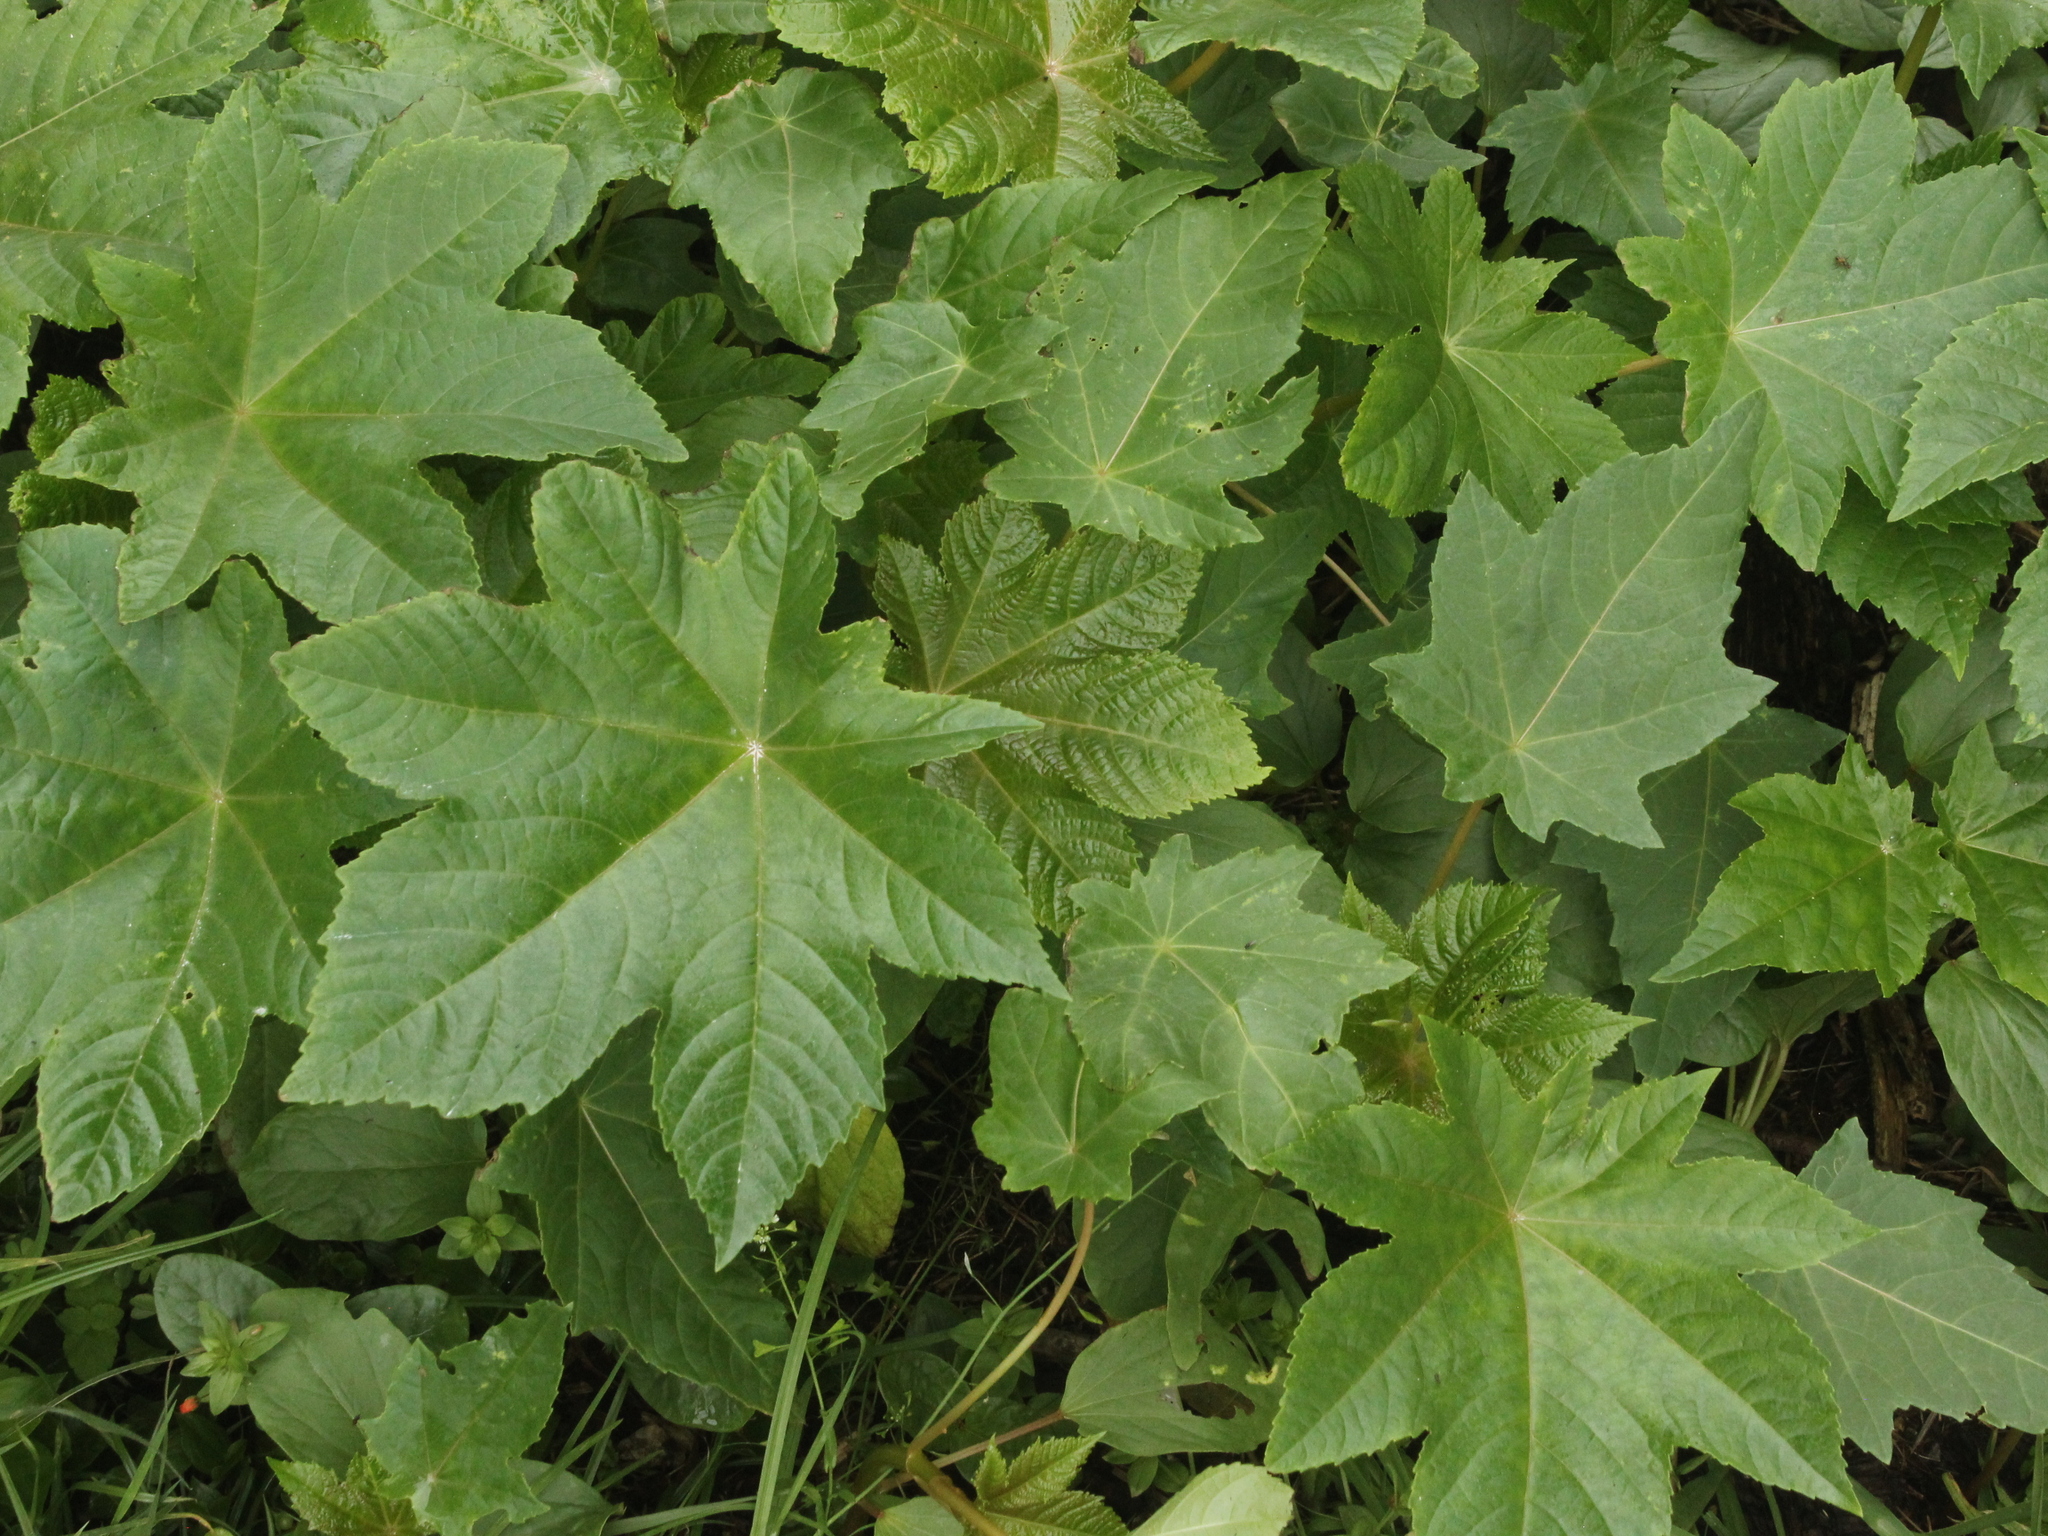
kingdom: Plantae
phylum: Tracheophyta
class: Magnoliopsida
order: Malpighiales
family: Euphorbiaceae
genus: Ricinus
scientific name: Ricinus communis
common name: Castor-oil-plant
